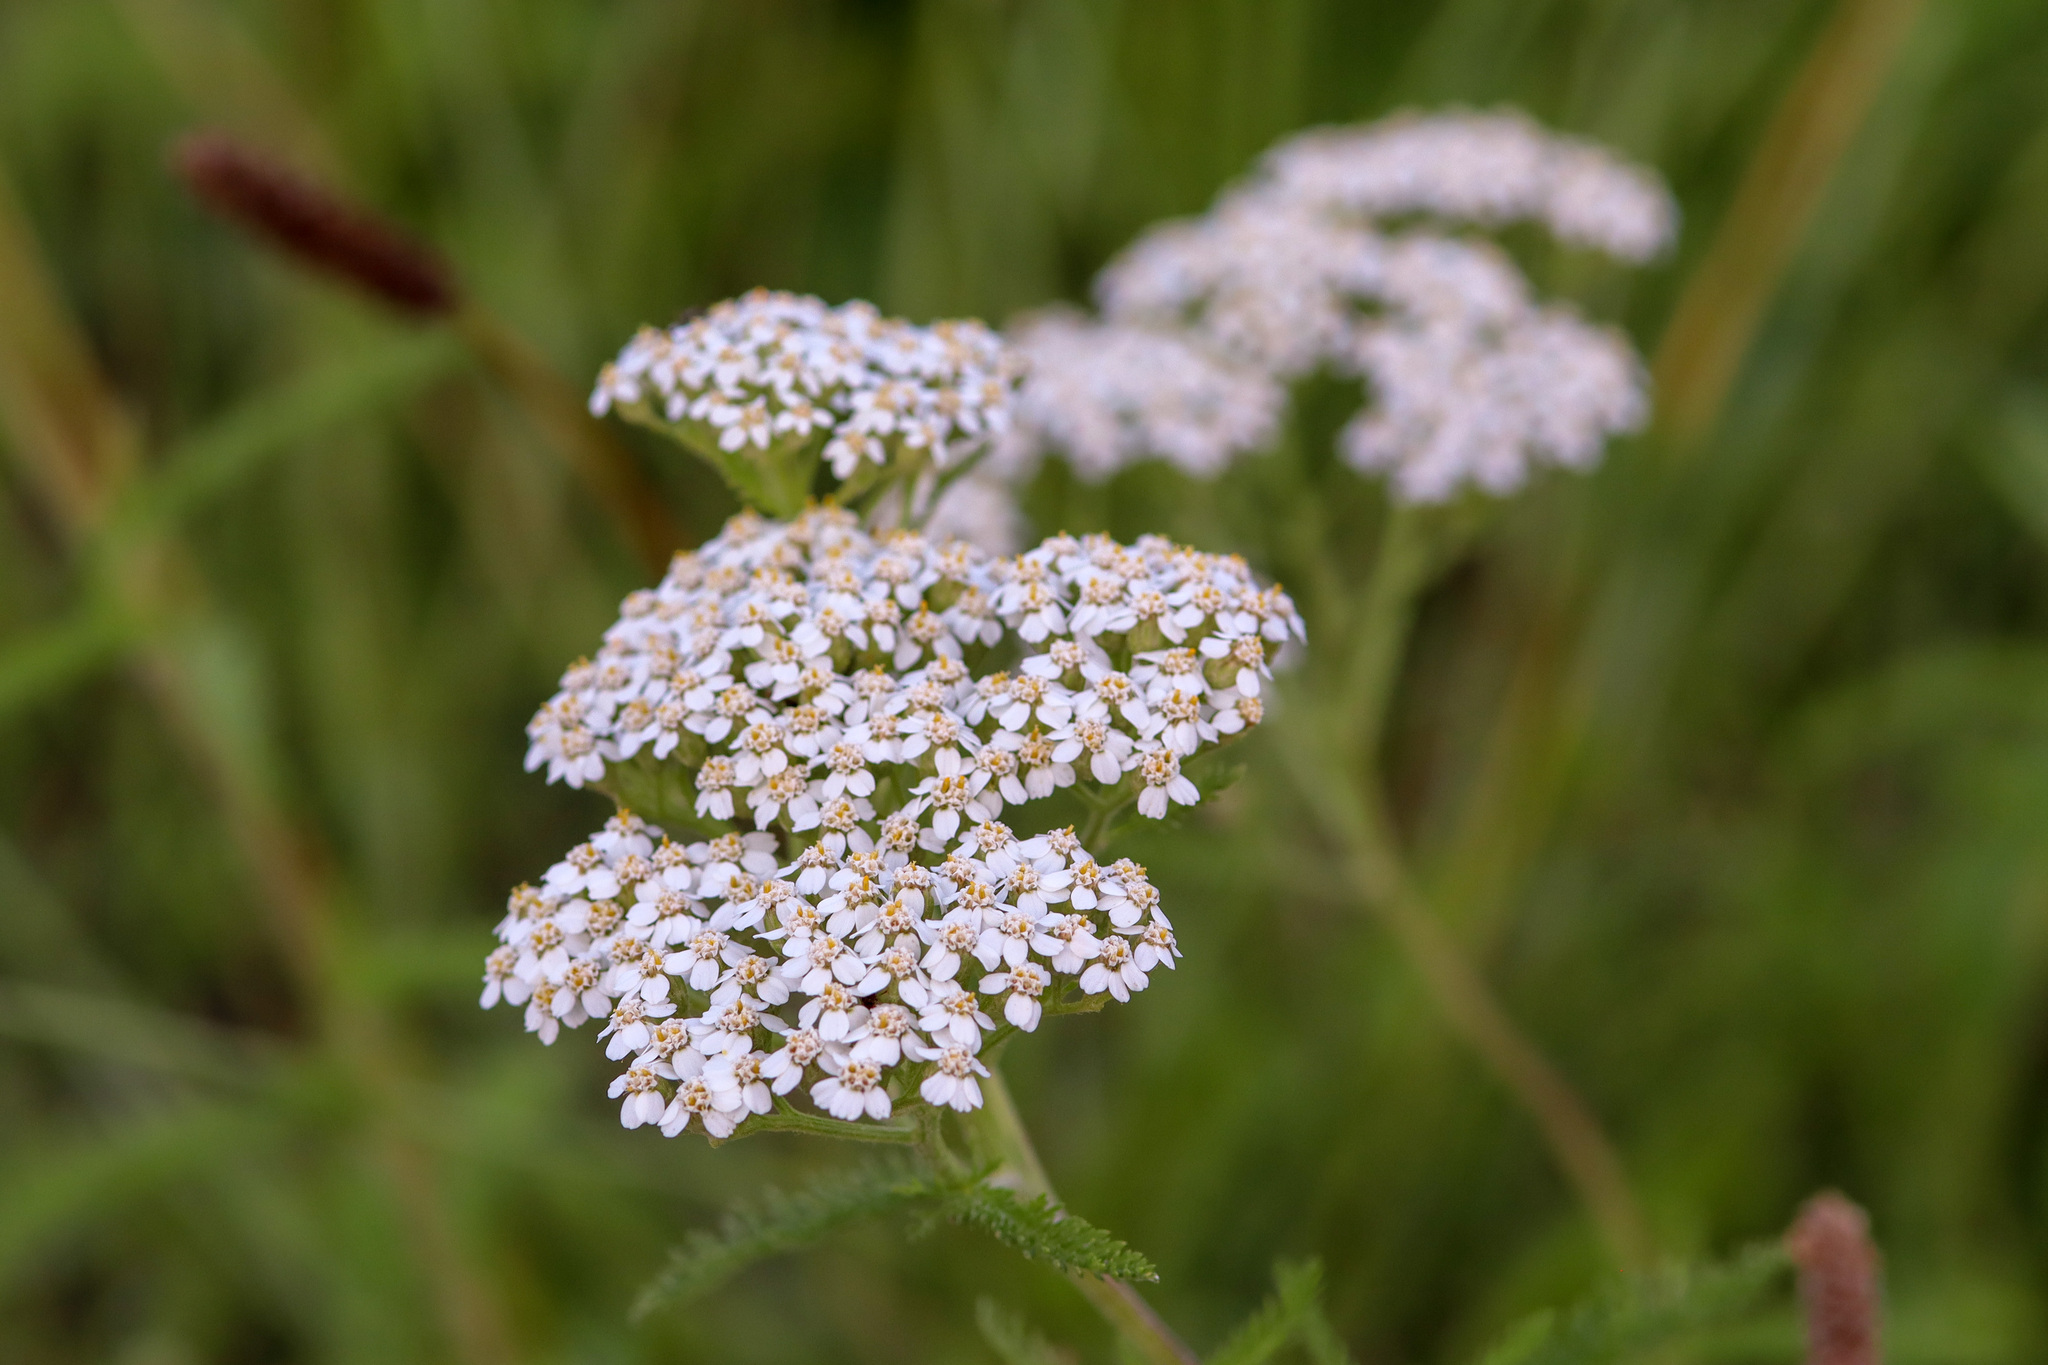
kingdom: Plantae
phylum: Tracheophyta
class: Magnoliopsida
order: Asterales
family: Asteraceae
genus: Achillea
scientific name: Achillea millefolium
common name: Yarrow
